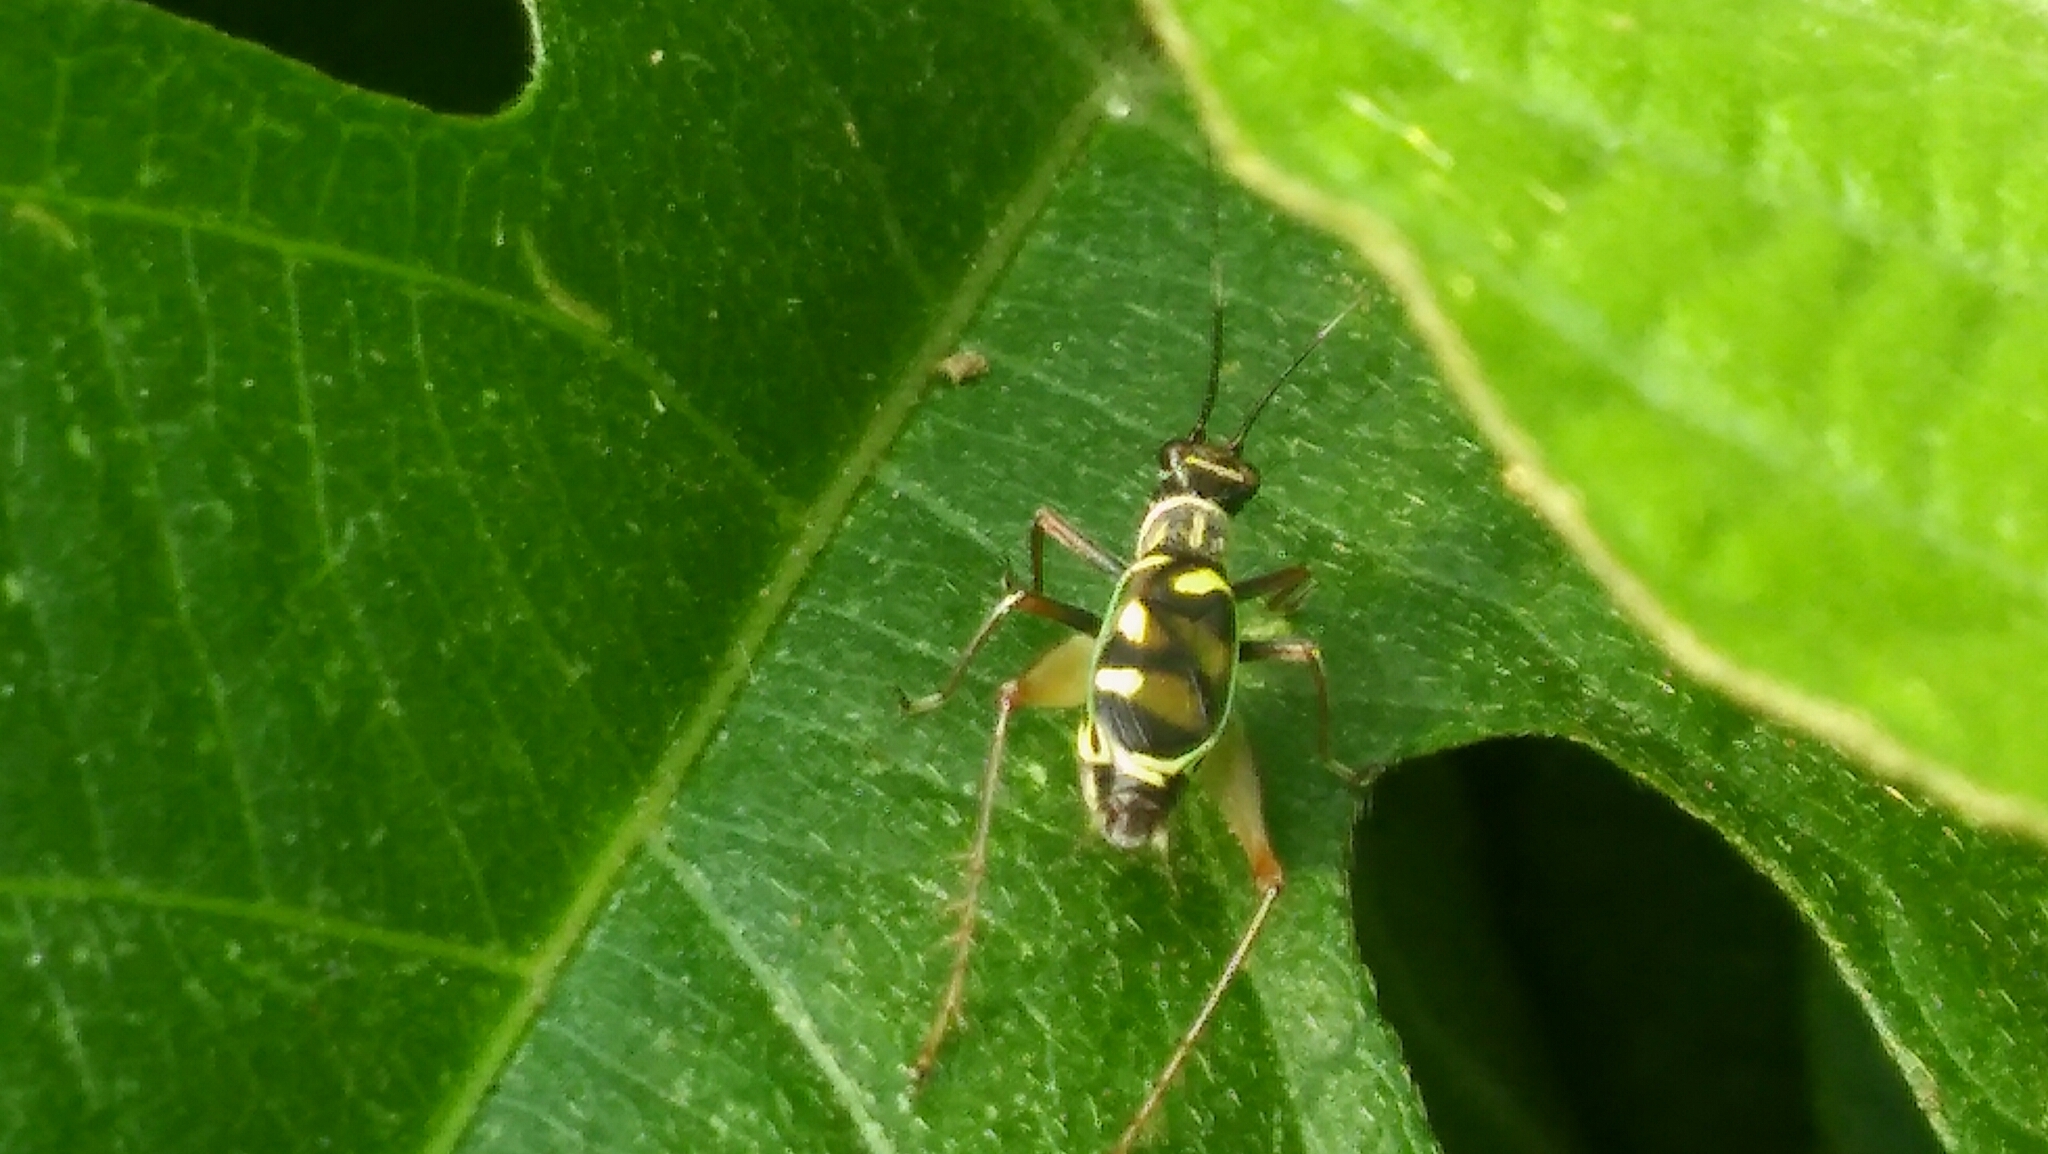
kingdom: Animalia
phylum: Arthropoda
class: Insecta
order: Orthoptera
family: Trigonidiidae
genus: Phylloscyrtus
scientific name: Phylloscyrtus amoenus
